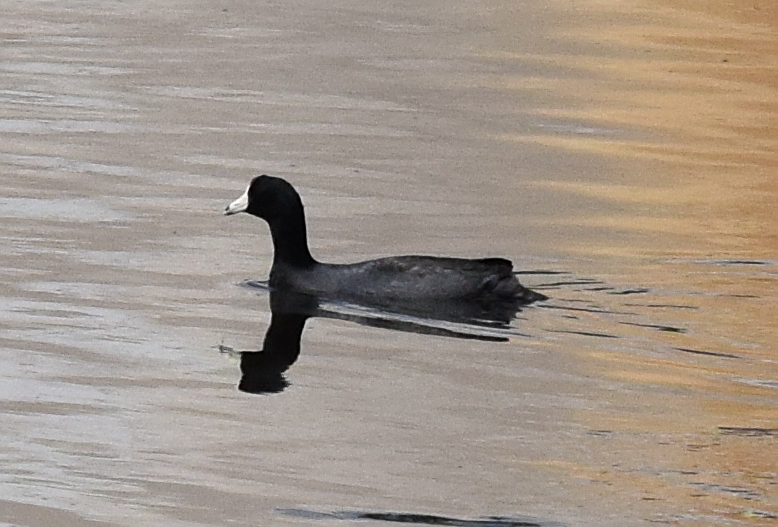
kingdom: Animalia
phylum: Chordata
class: Aves
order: Gruiformes
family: Rallidae
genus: Fulica
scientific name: Fulica americana
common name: American coot
